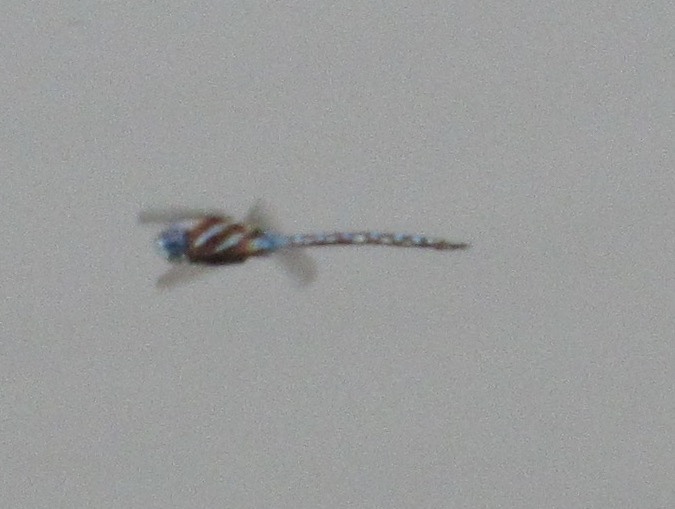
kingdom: Animalia
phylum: Arthropoda
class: Insecta
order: Odonata
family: Aeshnidae
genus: Rhionaeschna
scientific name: Rhionaeschna multicolor
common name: Blue-eyed darner
